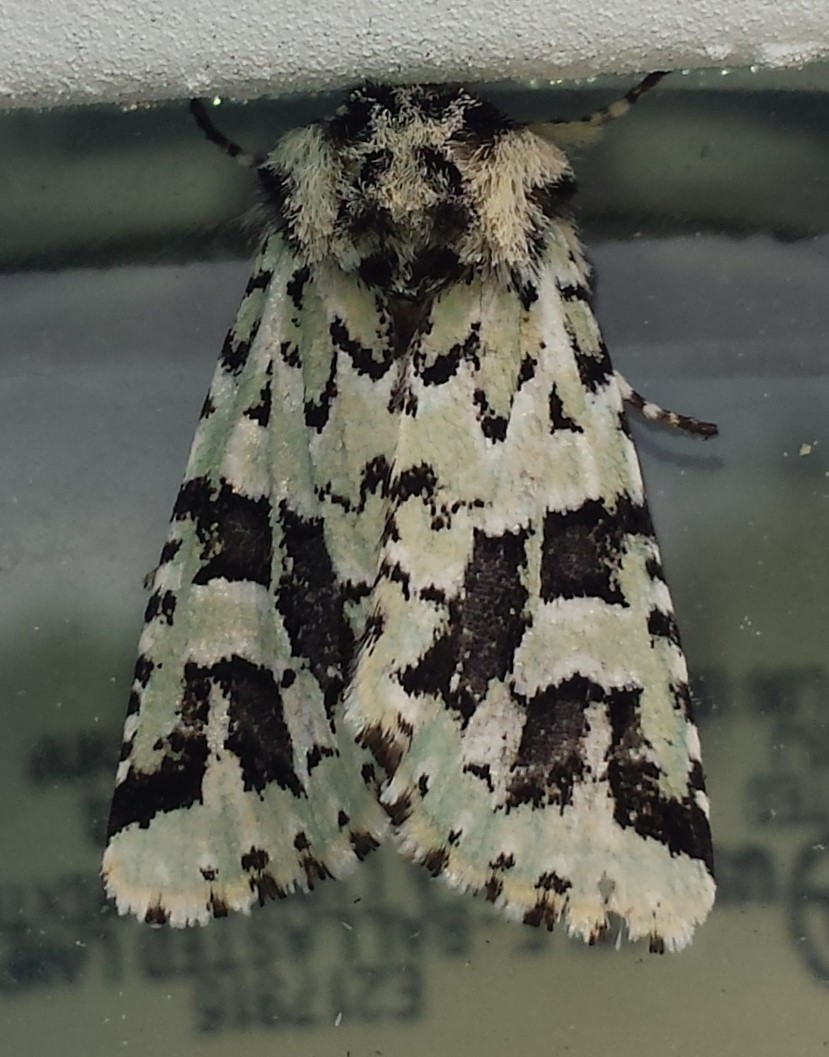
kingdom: Animalia
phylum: Arthropoda
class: Insecta
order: Lepidoptera
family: Noctuidae
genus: Feralia
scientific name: Feralia comstocki
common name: Comstock's sallow
